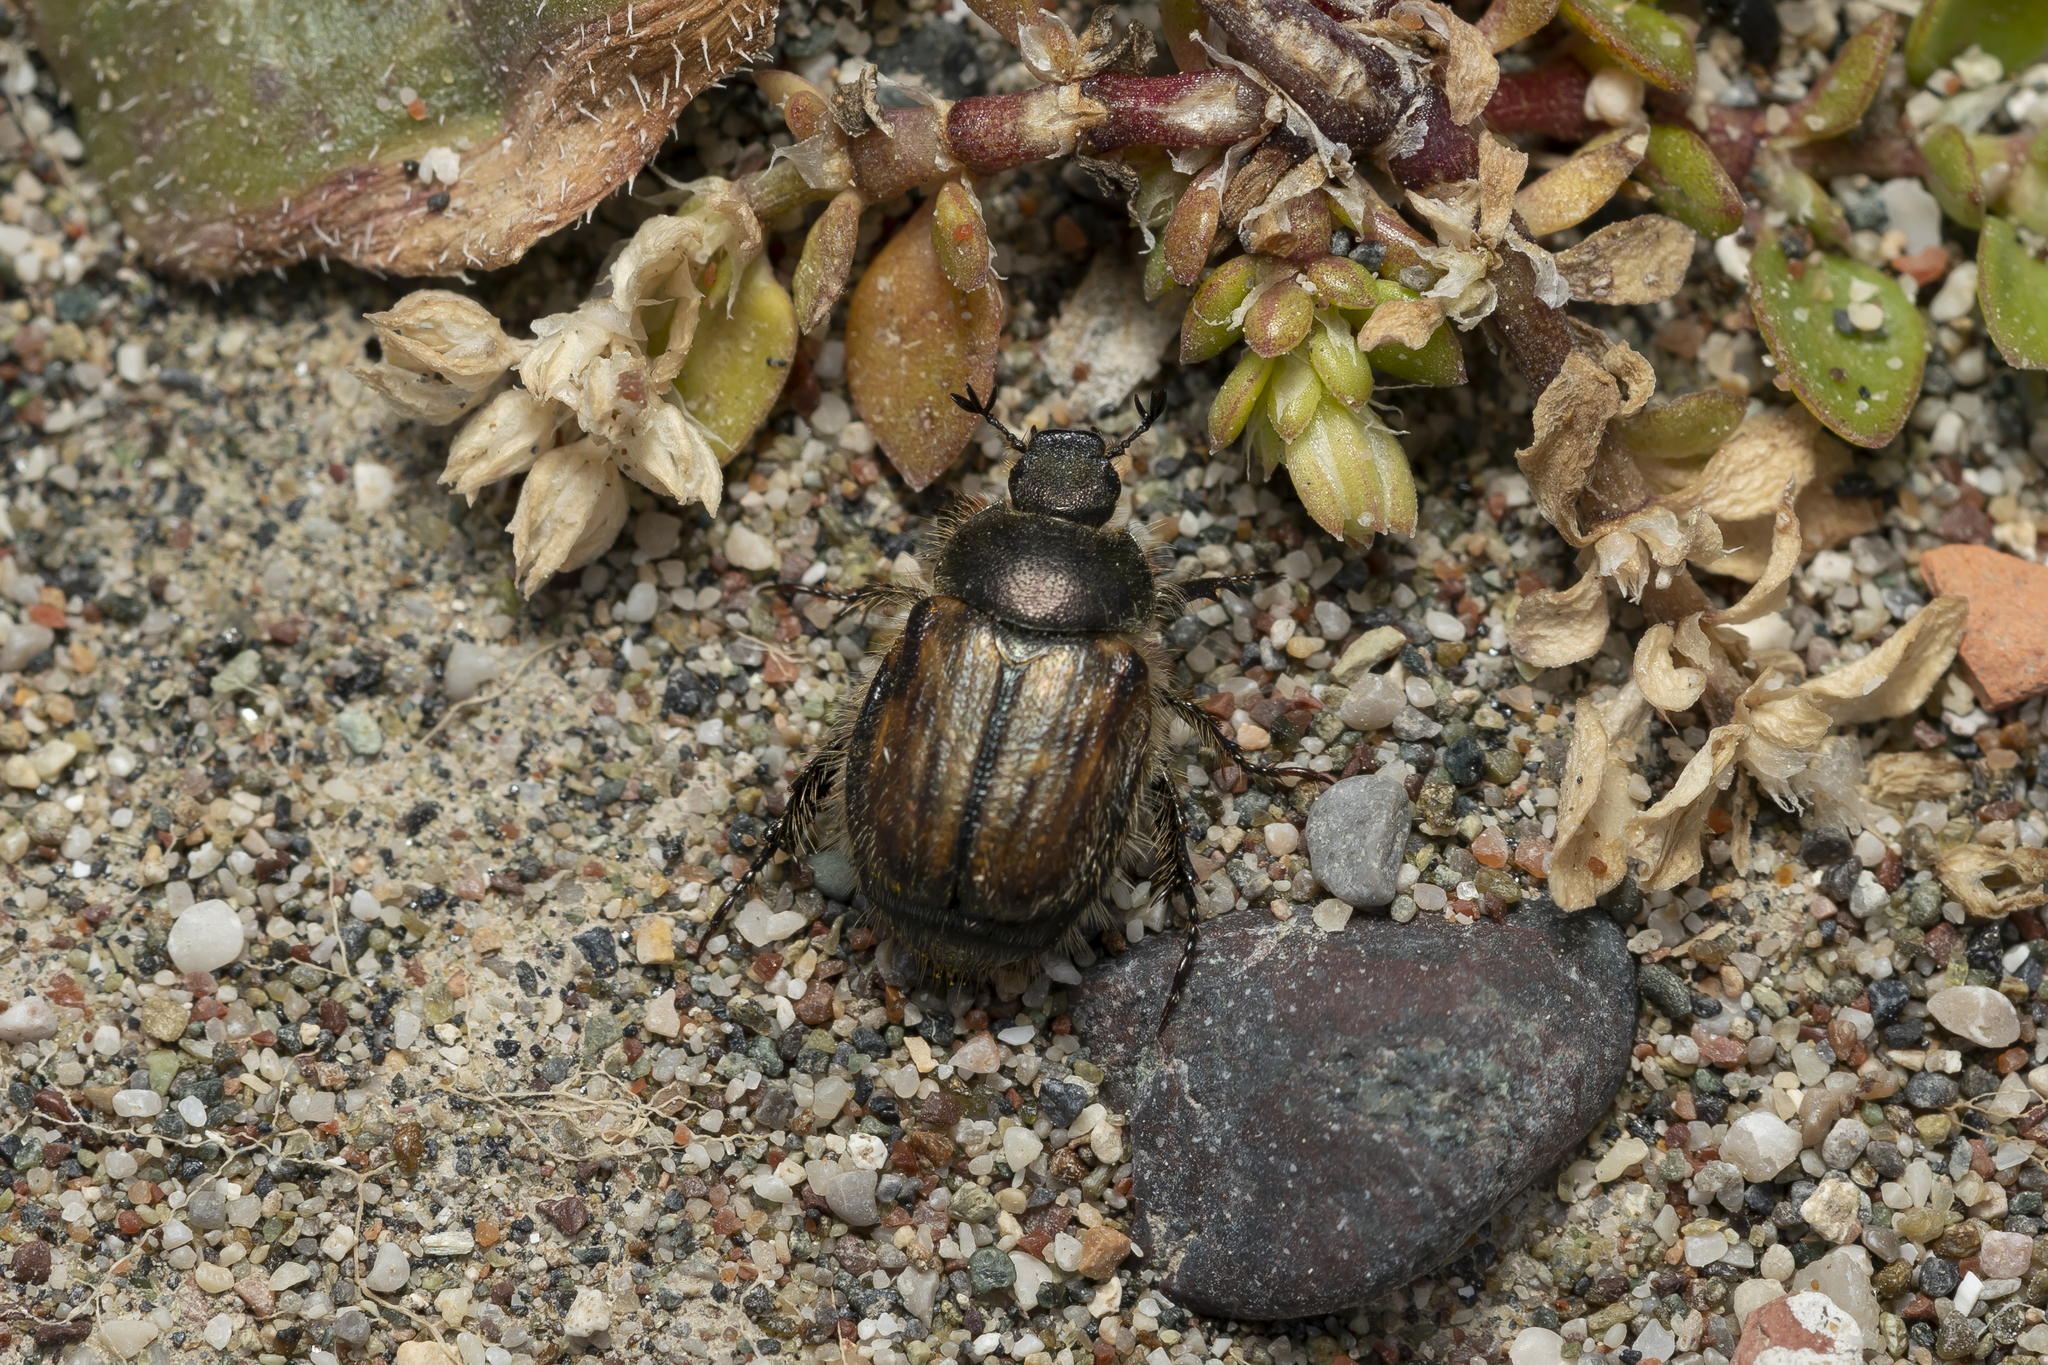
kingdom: Animalia
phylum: Arthropoda
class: Insecta
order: Coleoptera
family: Scarabaeidae
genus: Blitopertha
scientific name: Blitopertha lineolata
